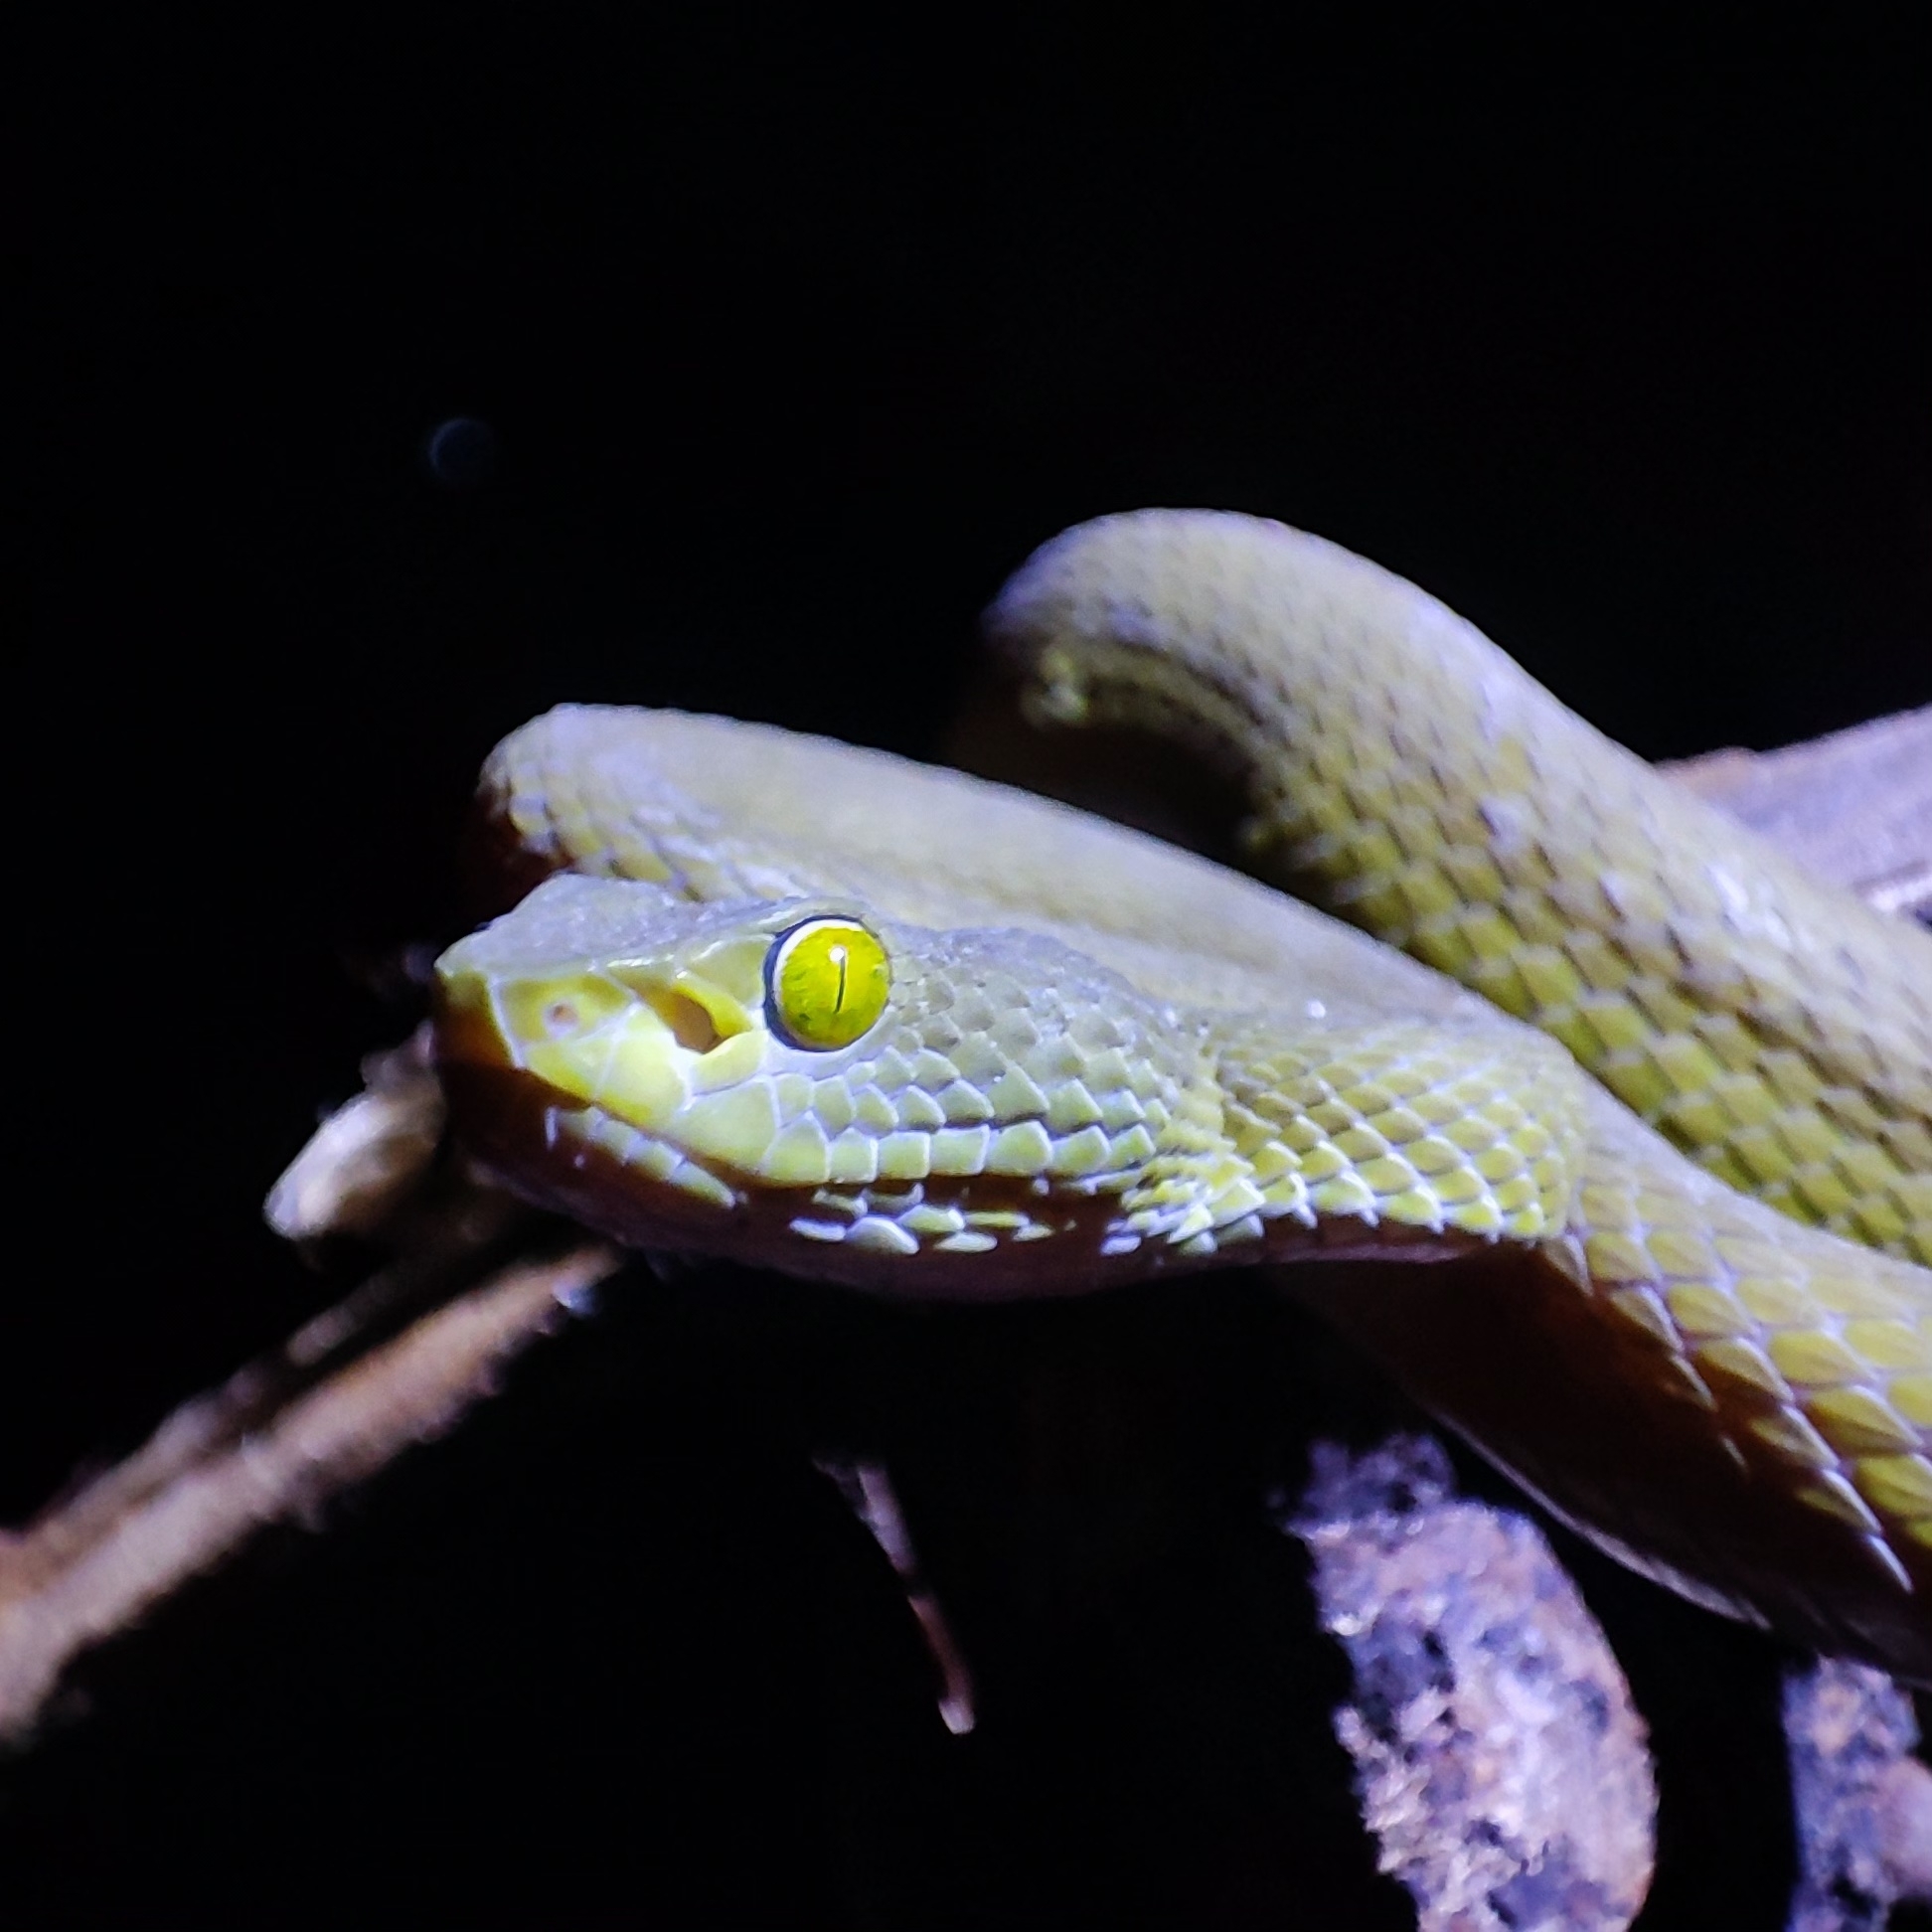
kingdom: Animalia
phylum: Chordata
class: Squamata
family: Viperidae
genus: Trimeresurus
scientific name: Trimeresurus macrops
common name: Kramer's pit viper
